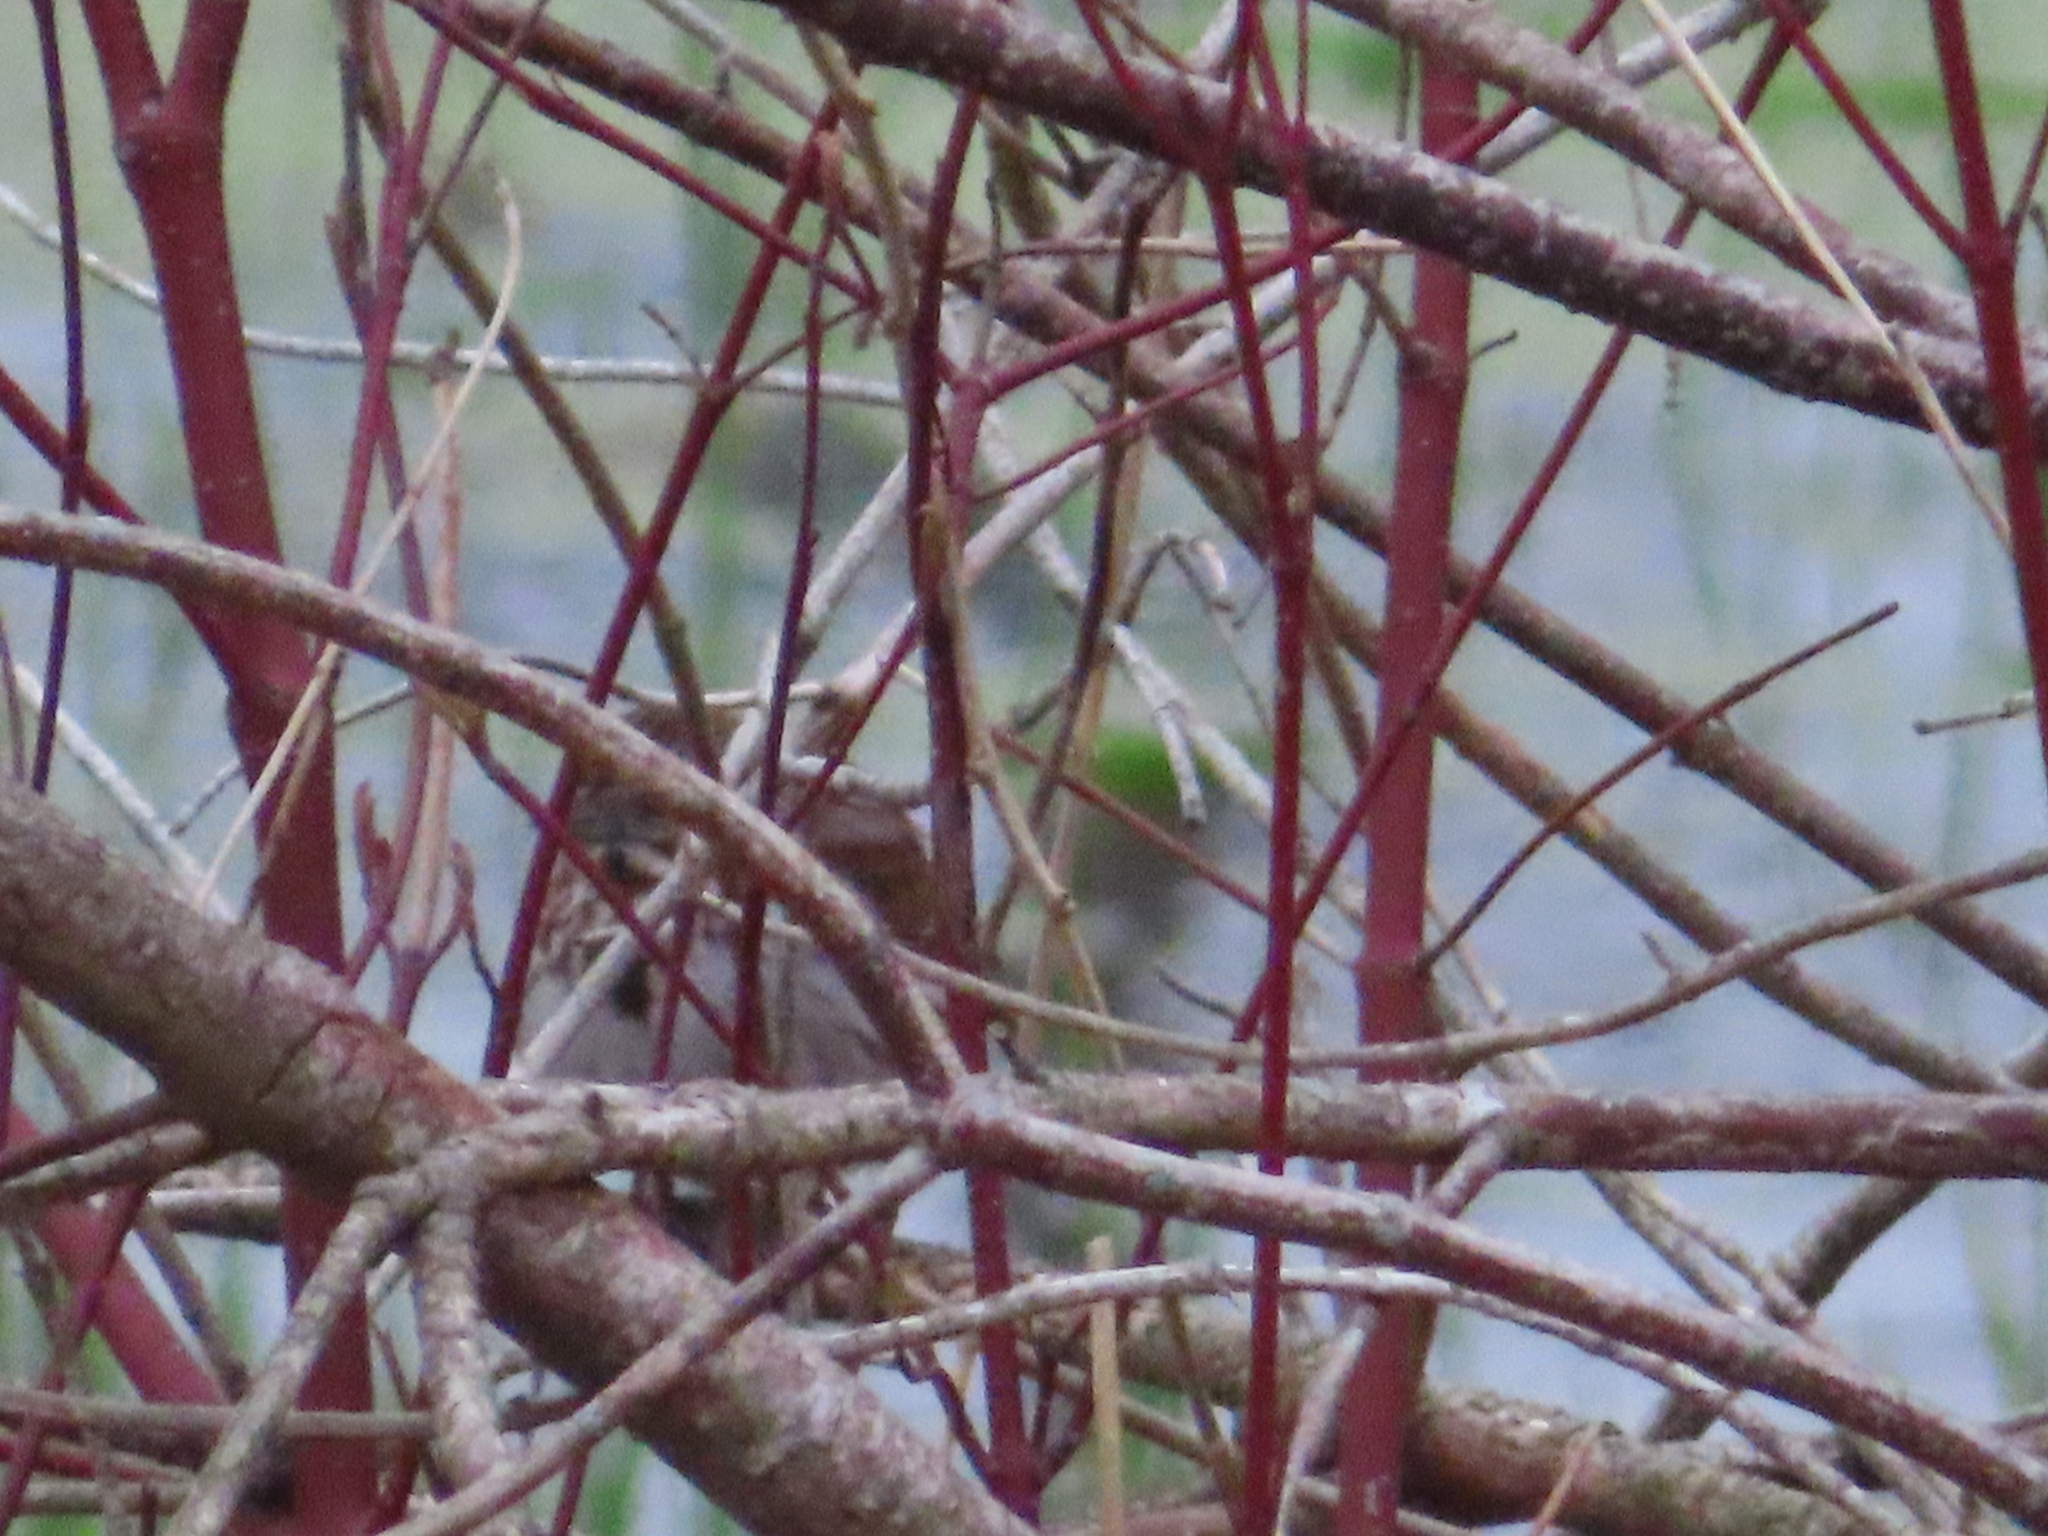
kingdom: Plantae
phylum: Tracheophyta
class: Magnoliopsida
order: Cornales
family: Cornaceae
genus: Cornus
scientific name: Cornus sericea
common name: Red-osier dogwood
